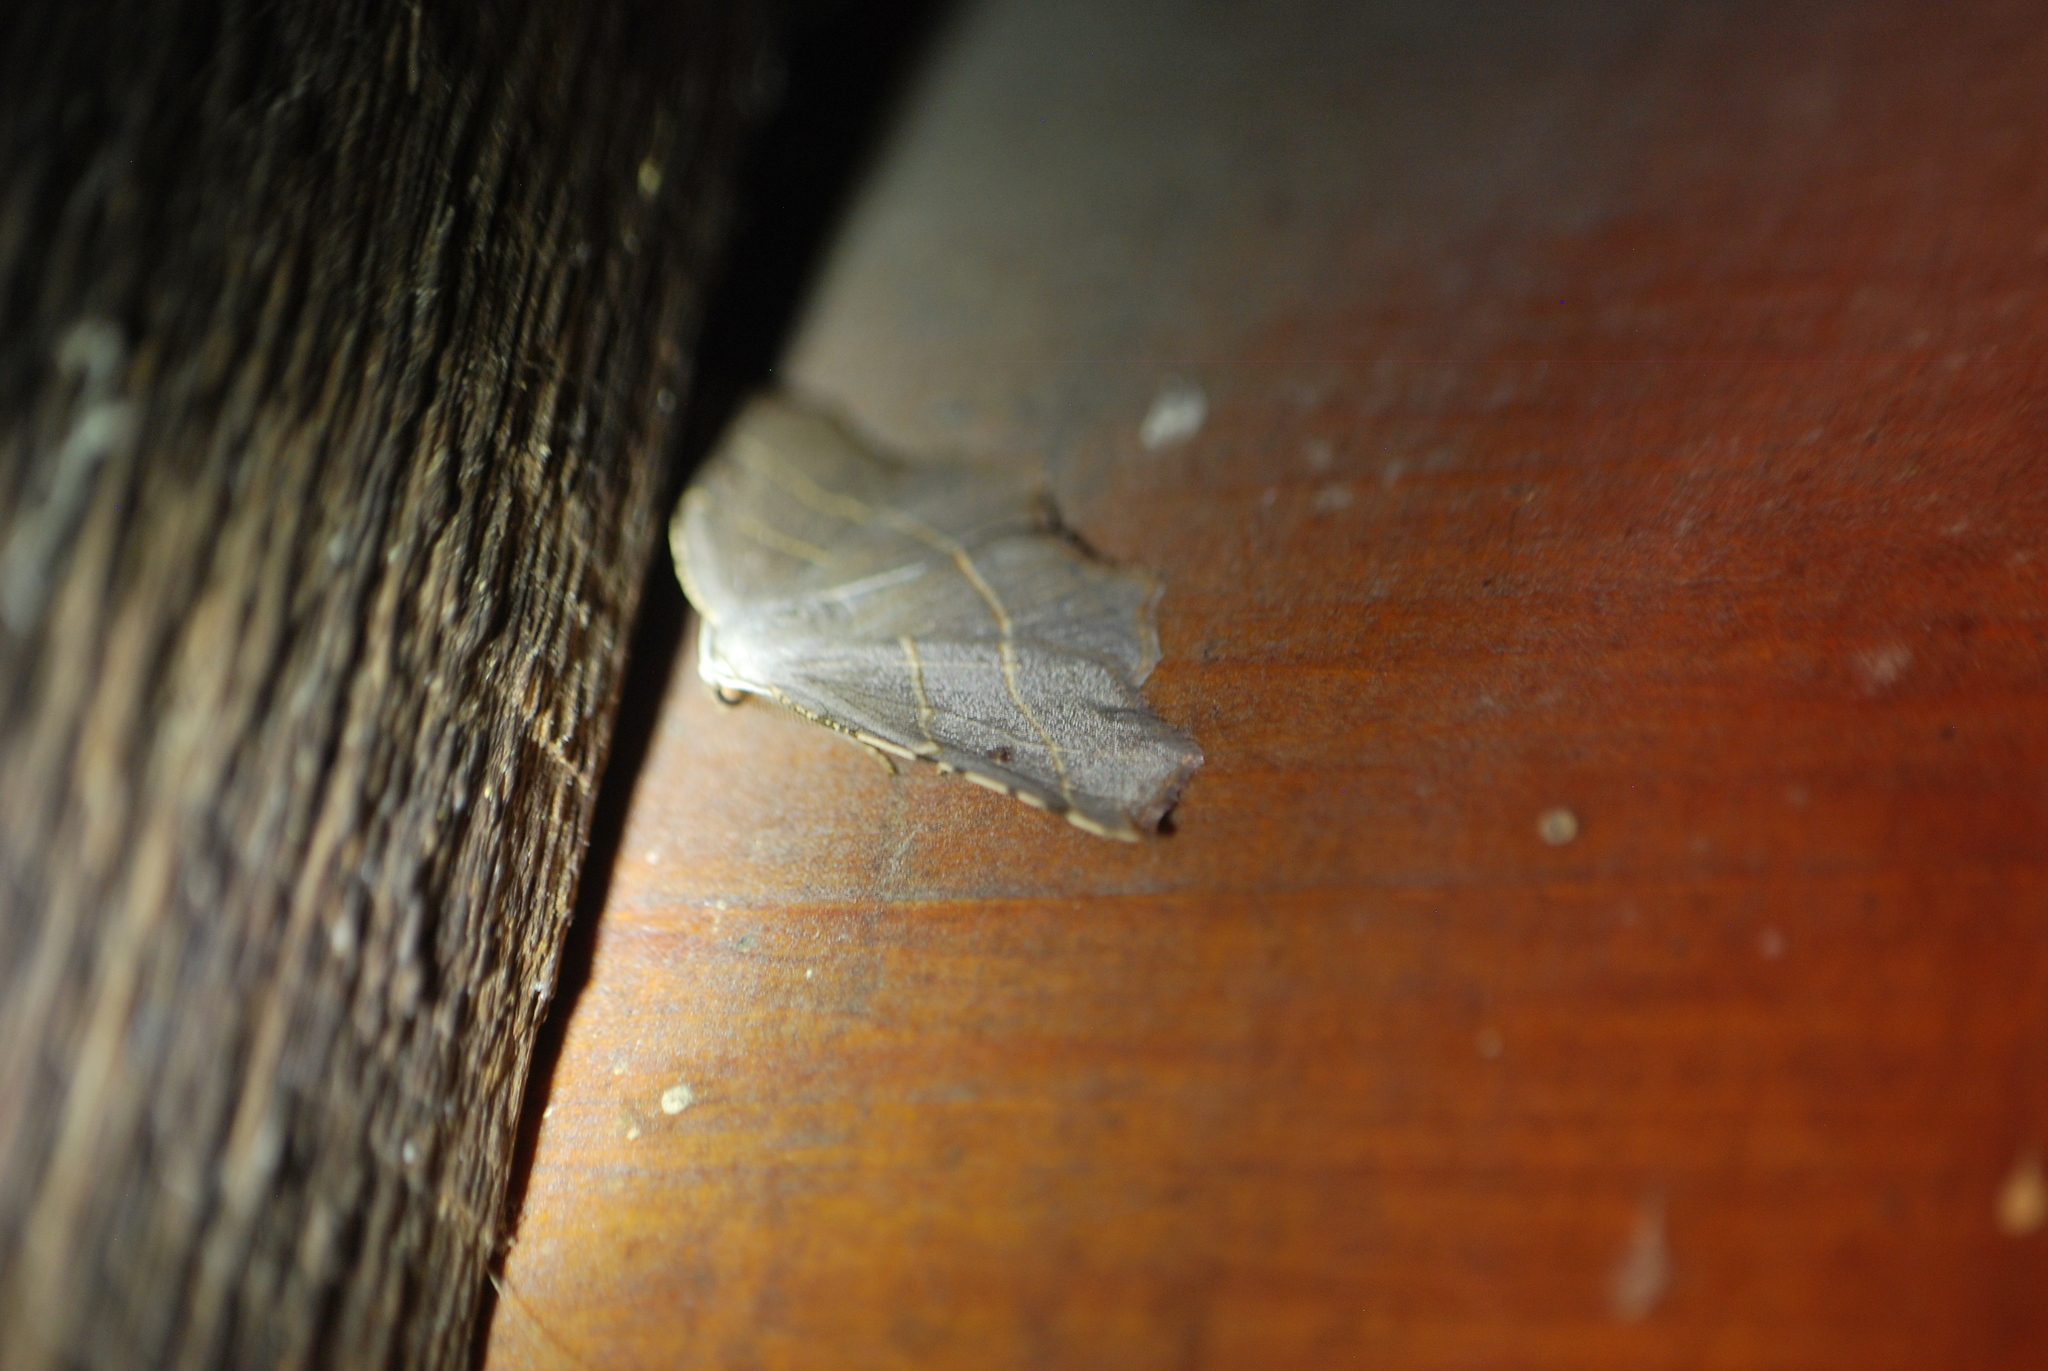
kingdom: Animalia
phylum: Arthropoda
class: Insecta
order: Lepidoptera
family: Geometridae
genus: Metanema
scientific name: Metanema inatomaria
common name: Pale metanema
